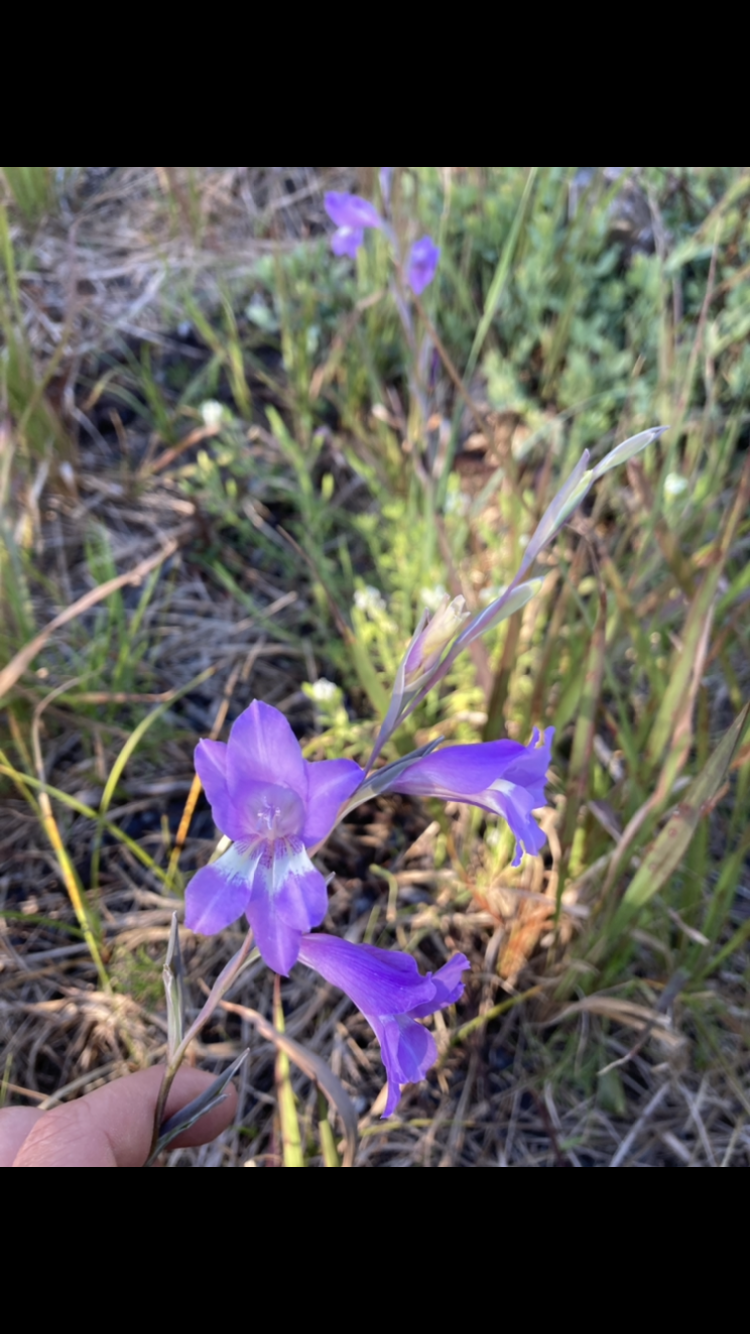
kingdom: Plantae
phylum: Tracheophyta
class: Liliopsida
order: Asparagales
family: Iridaceae
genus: Gladiolus
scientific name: Gladiolus carinatus
